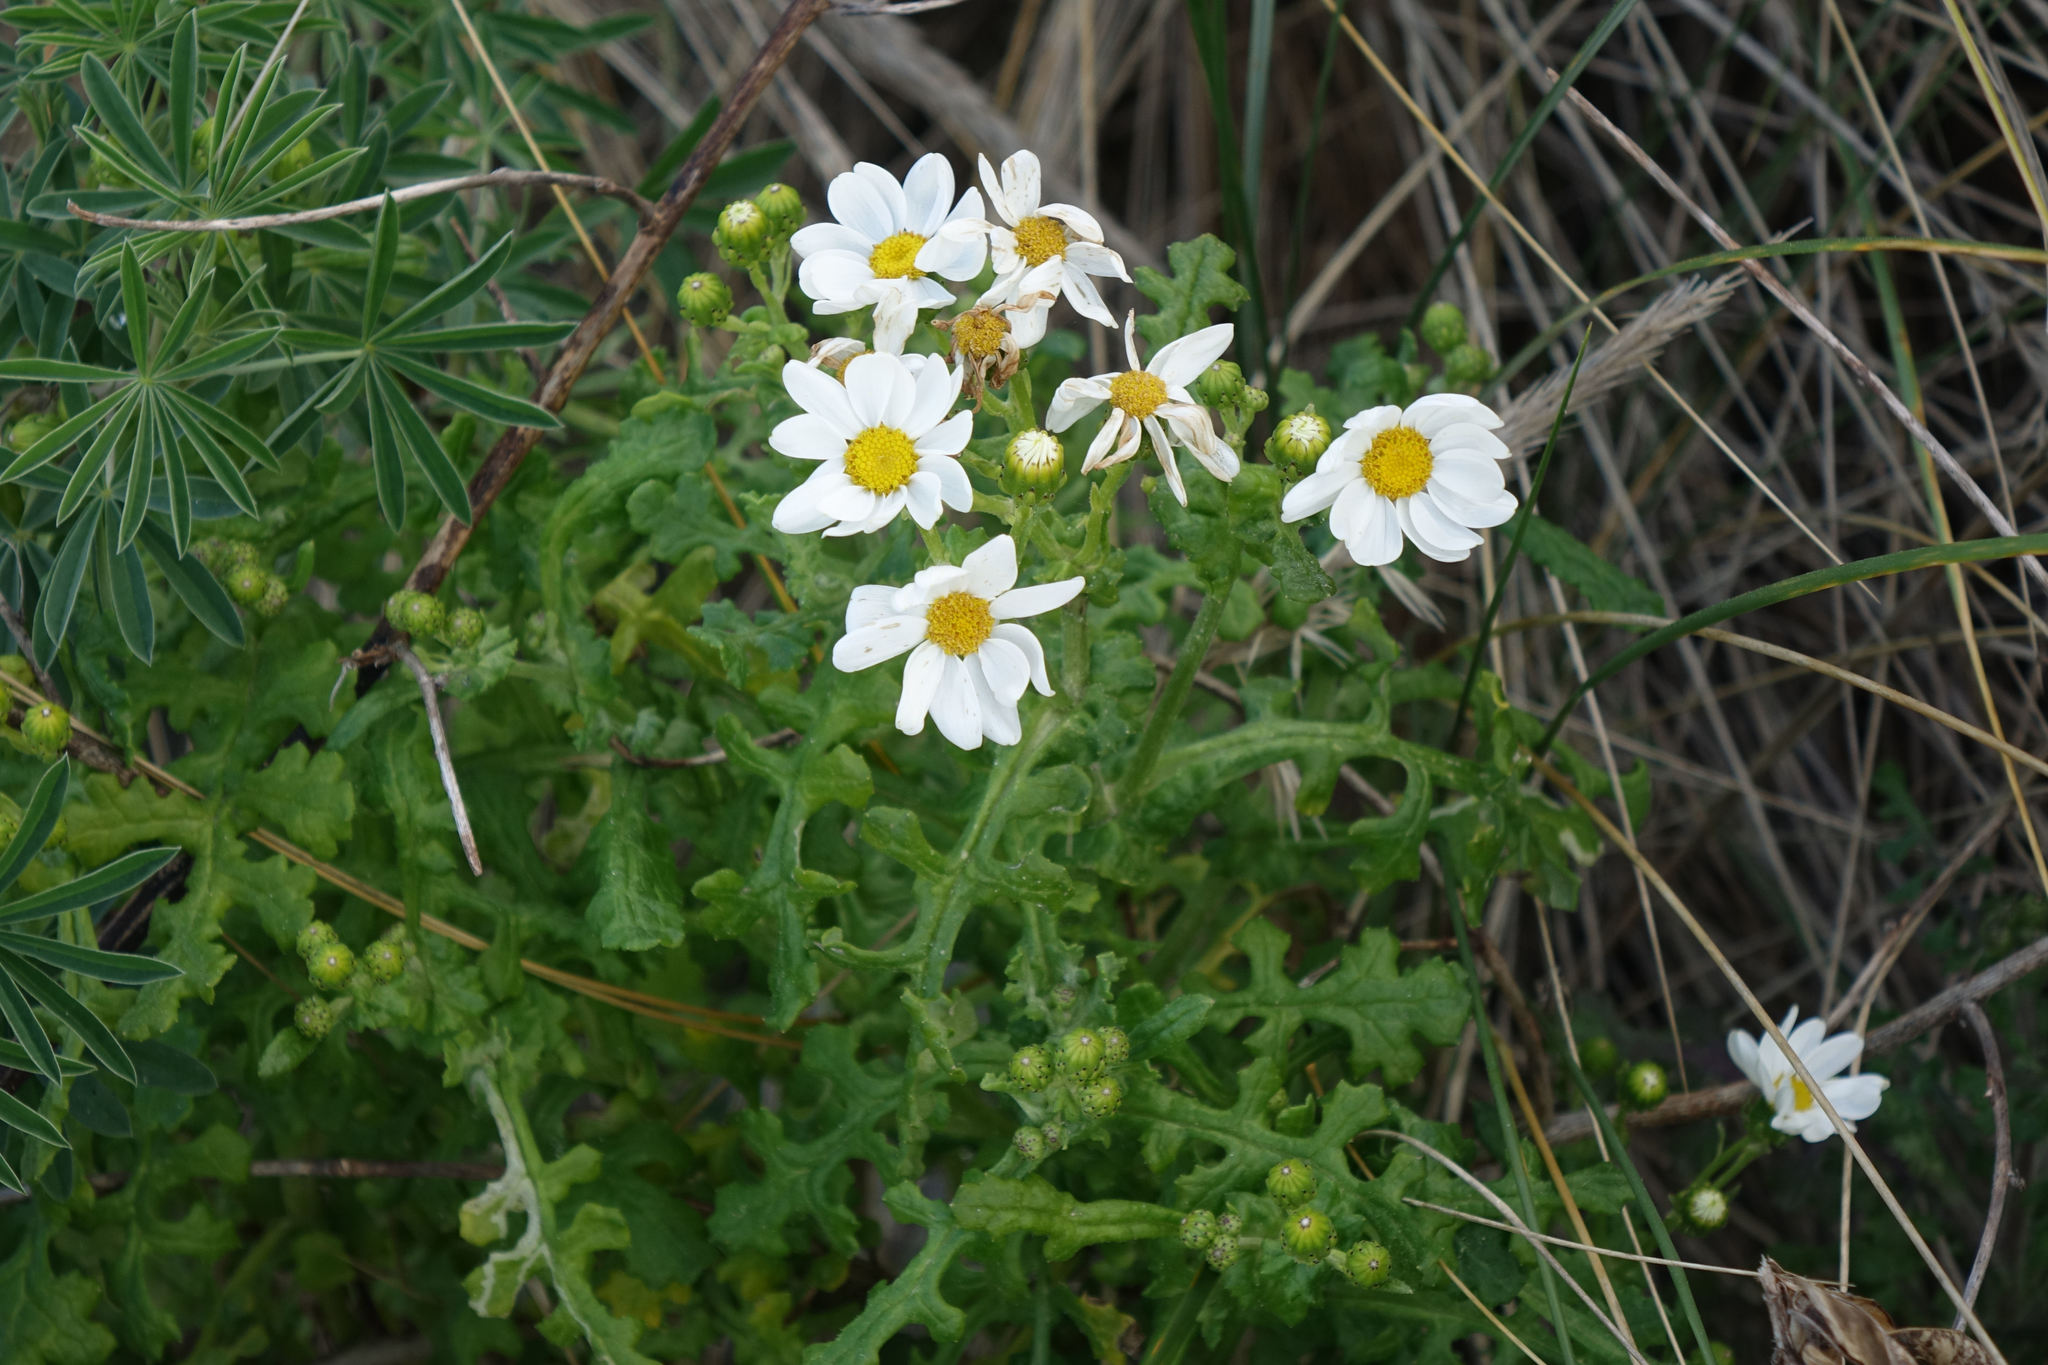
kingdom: Plantae
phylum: Tracheophyta
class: Magnoliopsida
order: Asterales
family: Asteraceae
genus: Senecio
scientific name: Senecio elegans
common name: Purple groundsel
